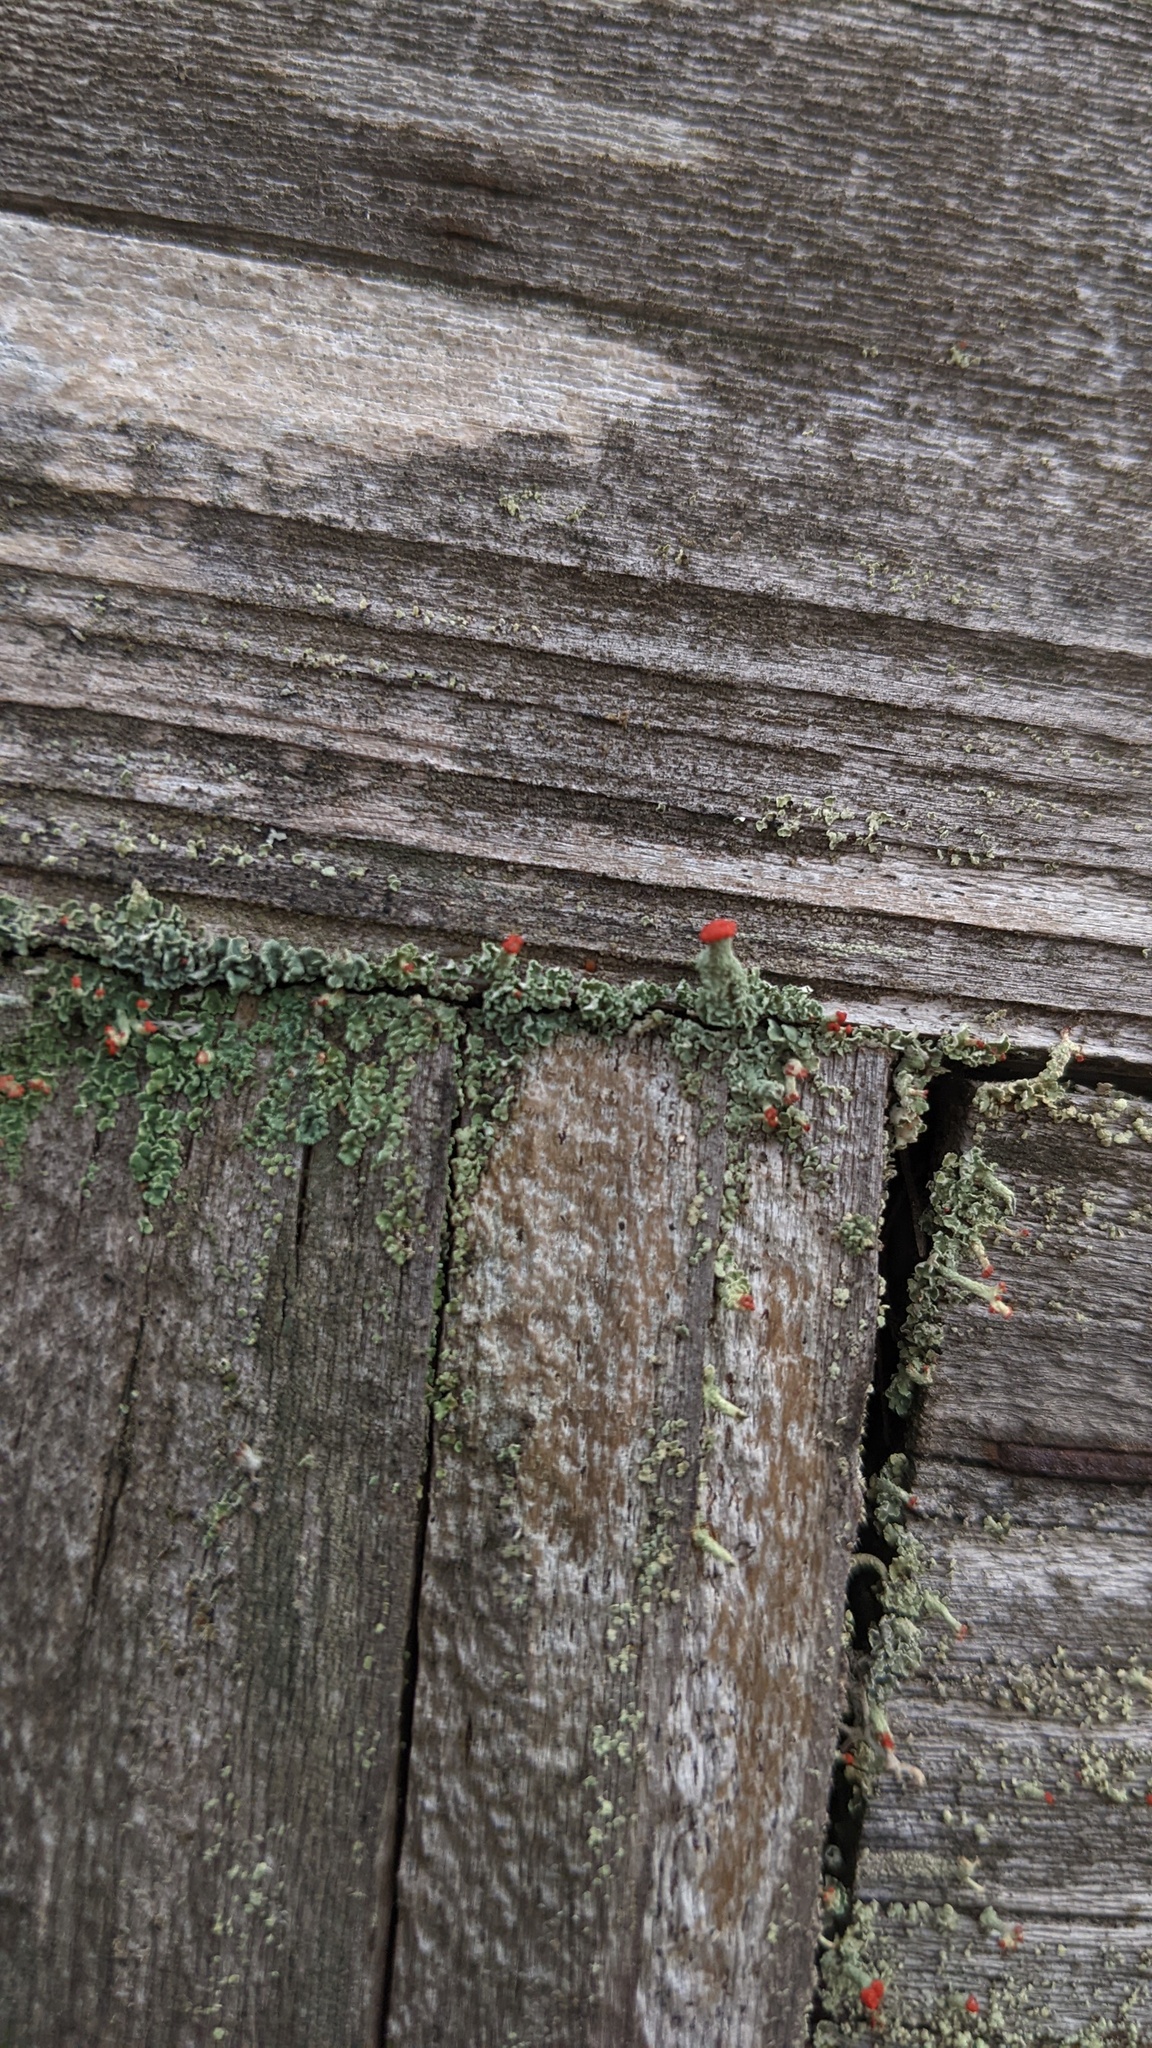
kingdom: Fungi
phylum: Ascomycota
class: Lecanoromycetes
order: Lecanorales
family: Cladoniaceae
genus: Cladonia
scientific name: Cladonia cristatella
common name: British soldier lichen
